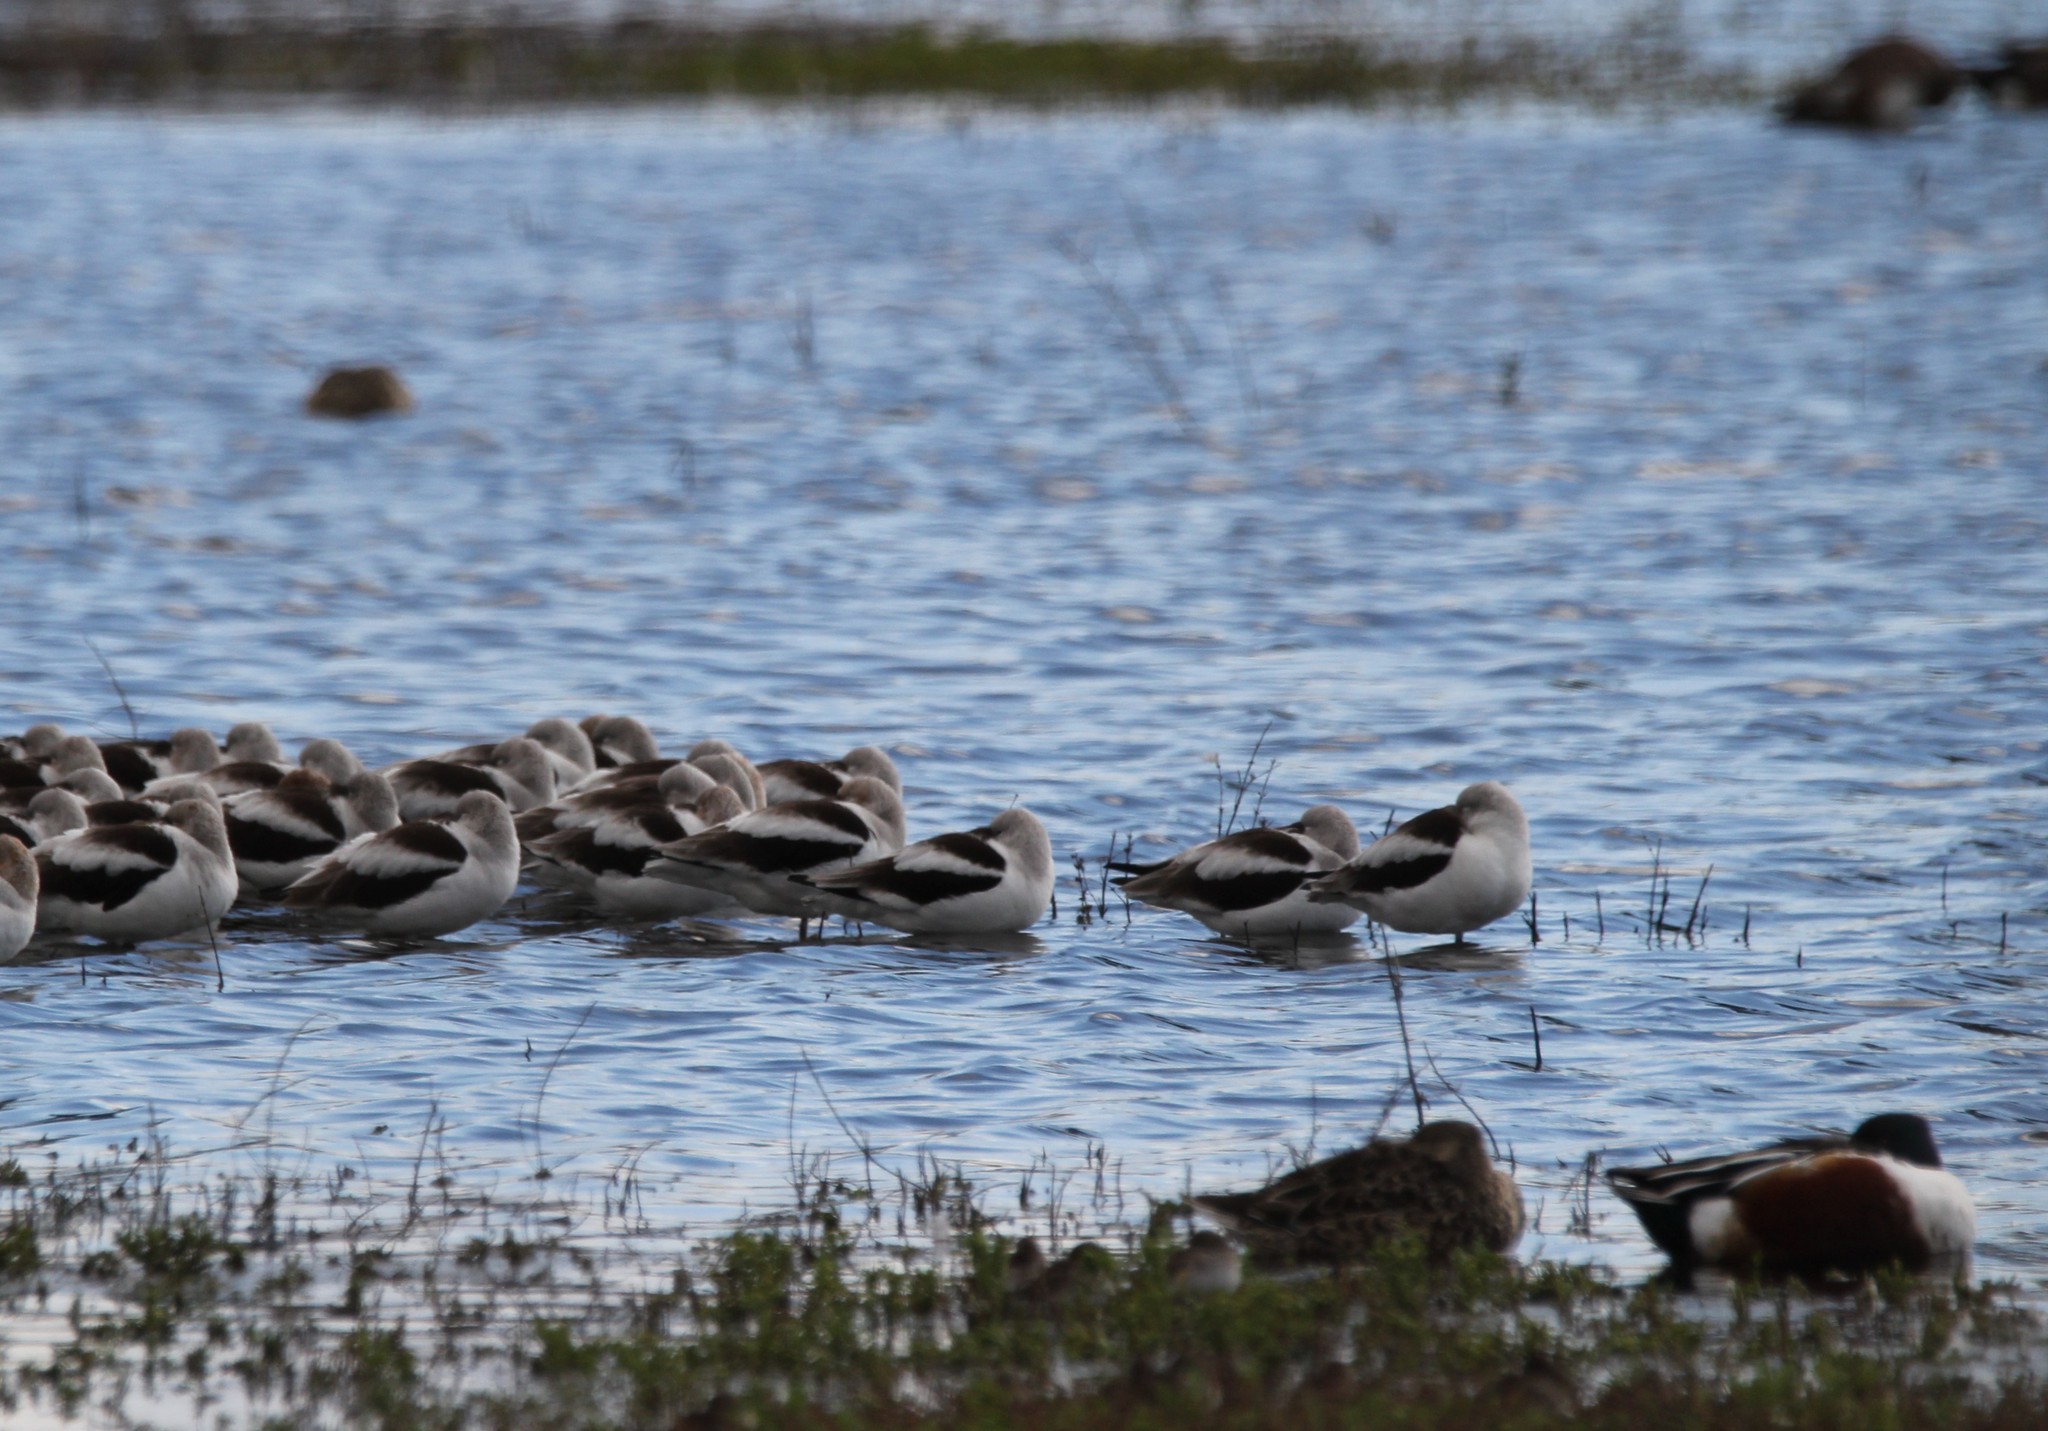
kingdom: Animalia
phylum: Chordata
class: Aves
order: Charadriiformes
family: Recurvirostridae
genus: Recurvirostra
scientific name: Recurvirostra americana
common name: American avocet
